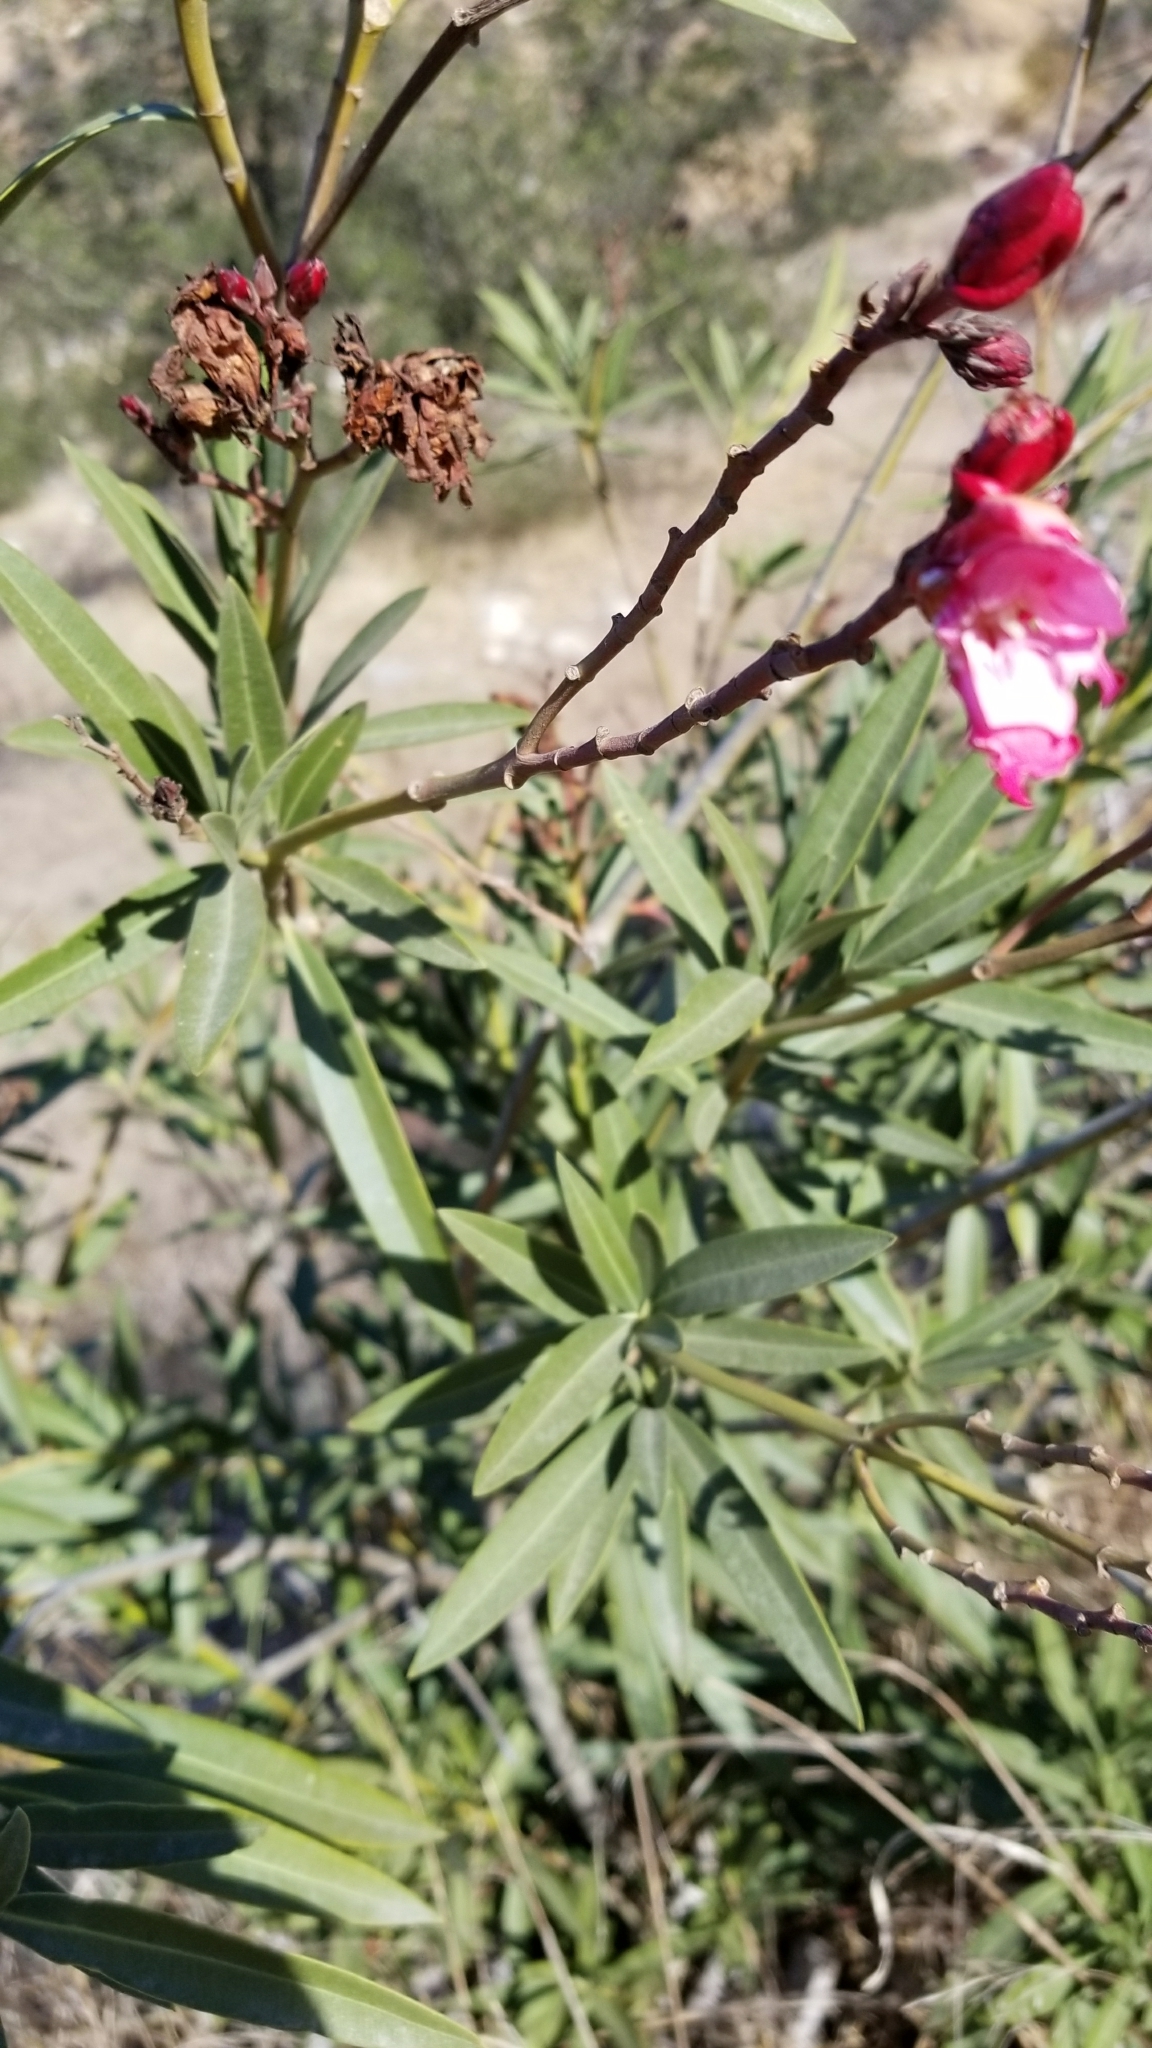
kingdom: Plantae
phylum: Tracheophyta
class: Magnoliopsida
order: Gentianales
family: Apocynaceae
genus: Nerium
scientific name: Nerium oleander
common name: Oleander
